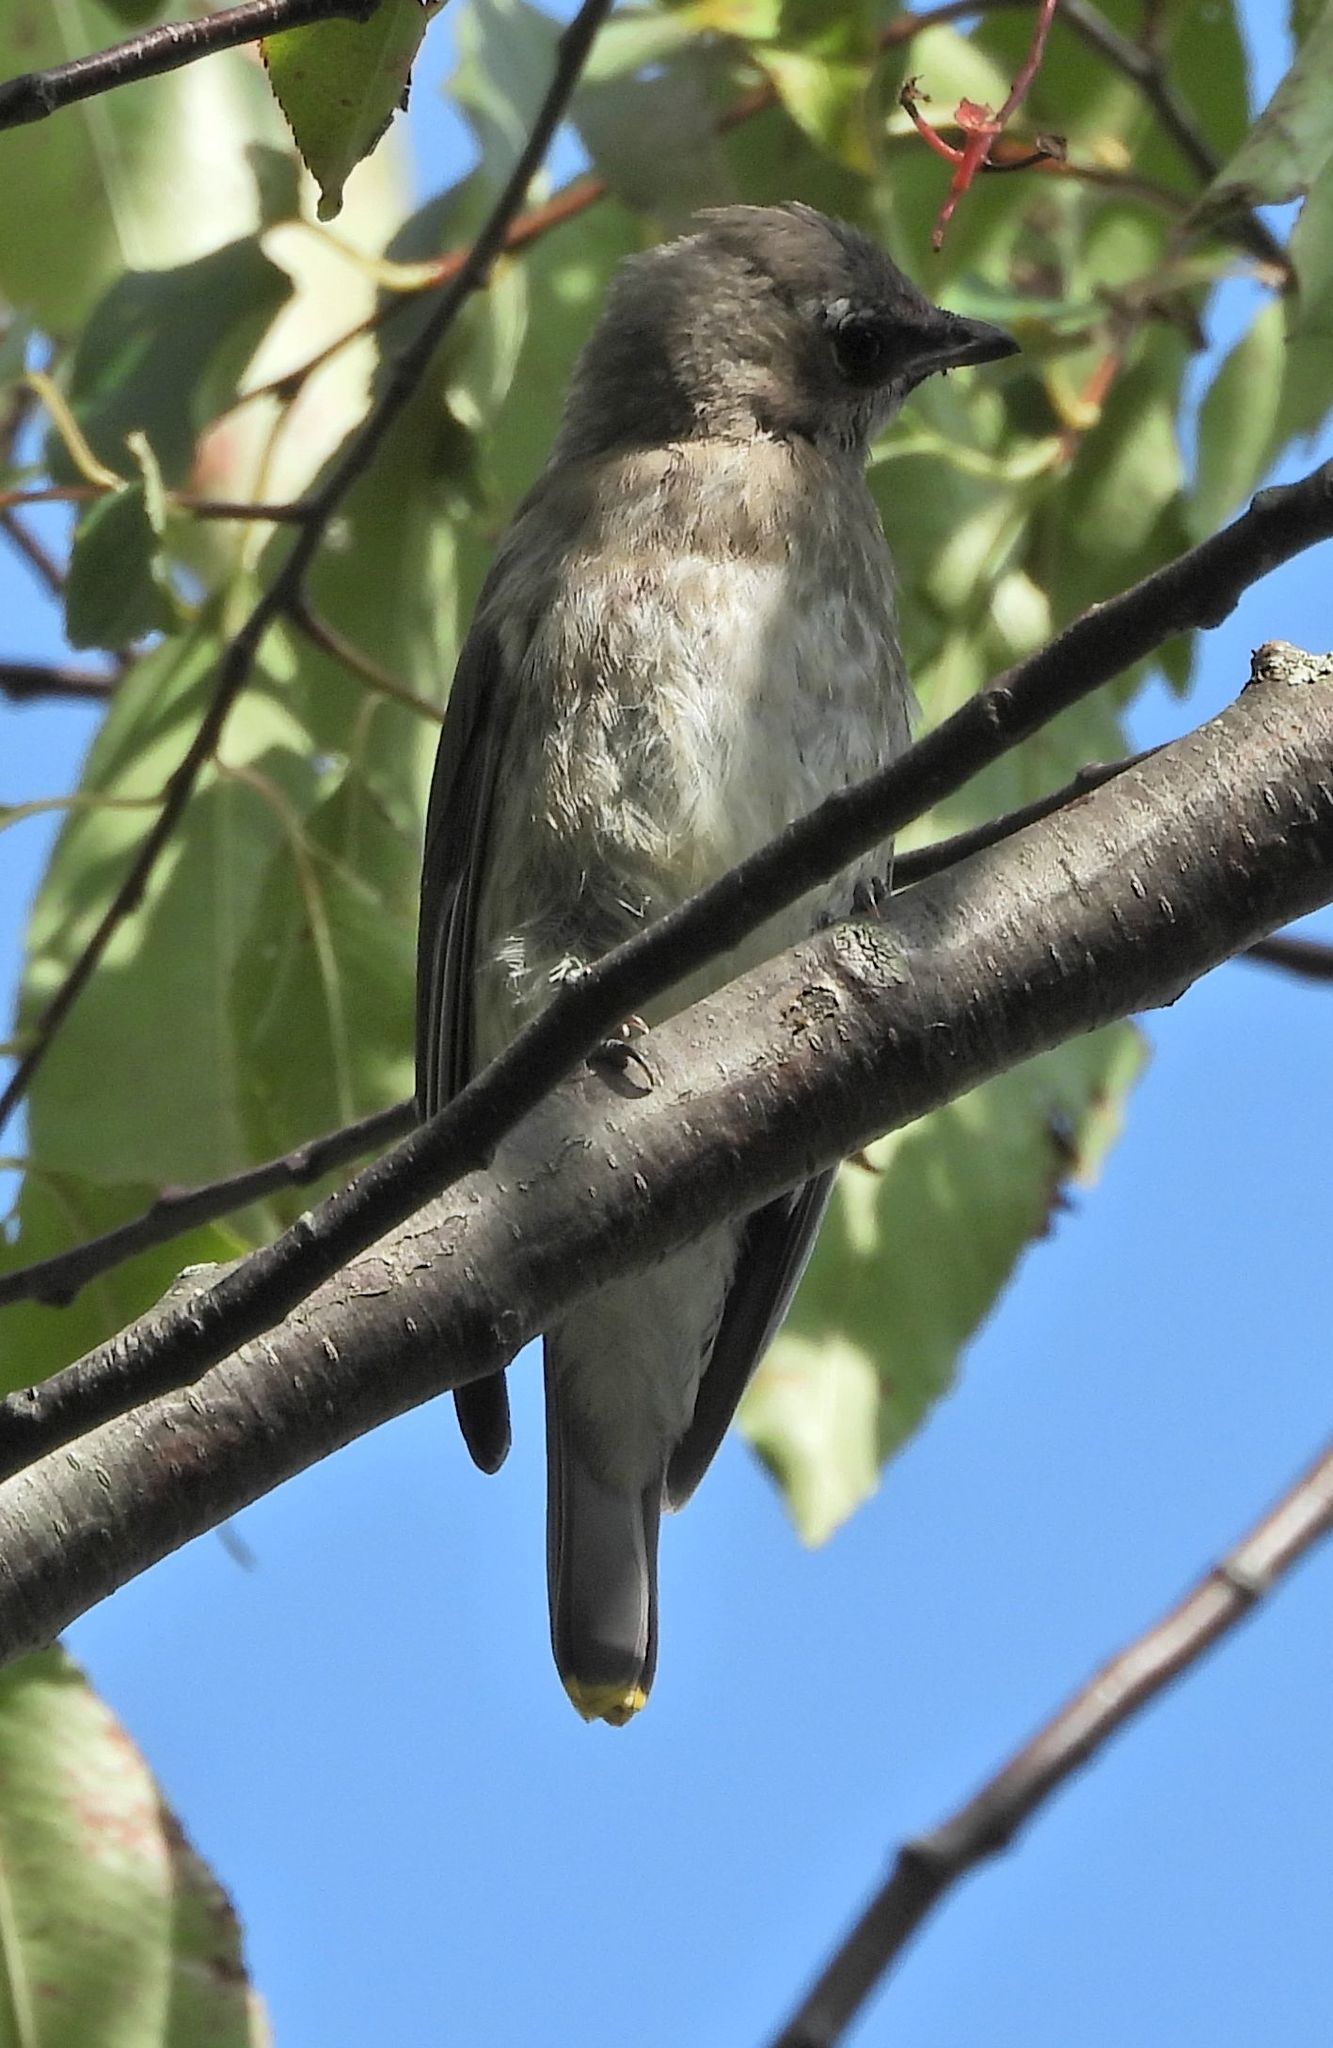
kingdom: Animalia
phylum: Chordata
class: Aves
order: Passeriformes
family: Bombycillidae
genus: Bombycilla
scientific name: Bombycilla cedrorum
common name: Cedar waxwing
